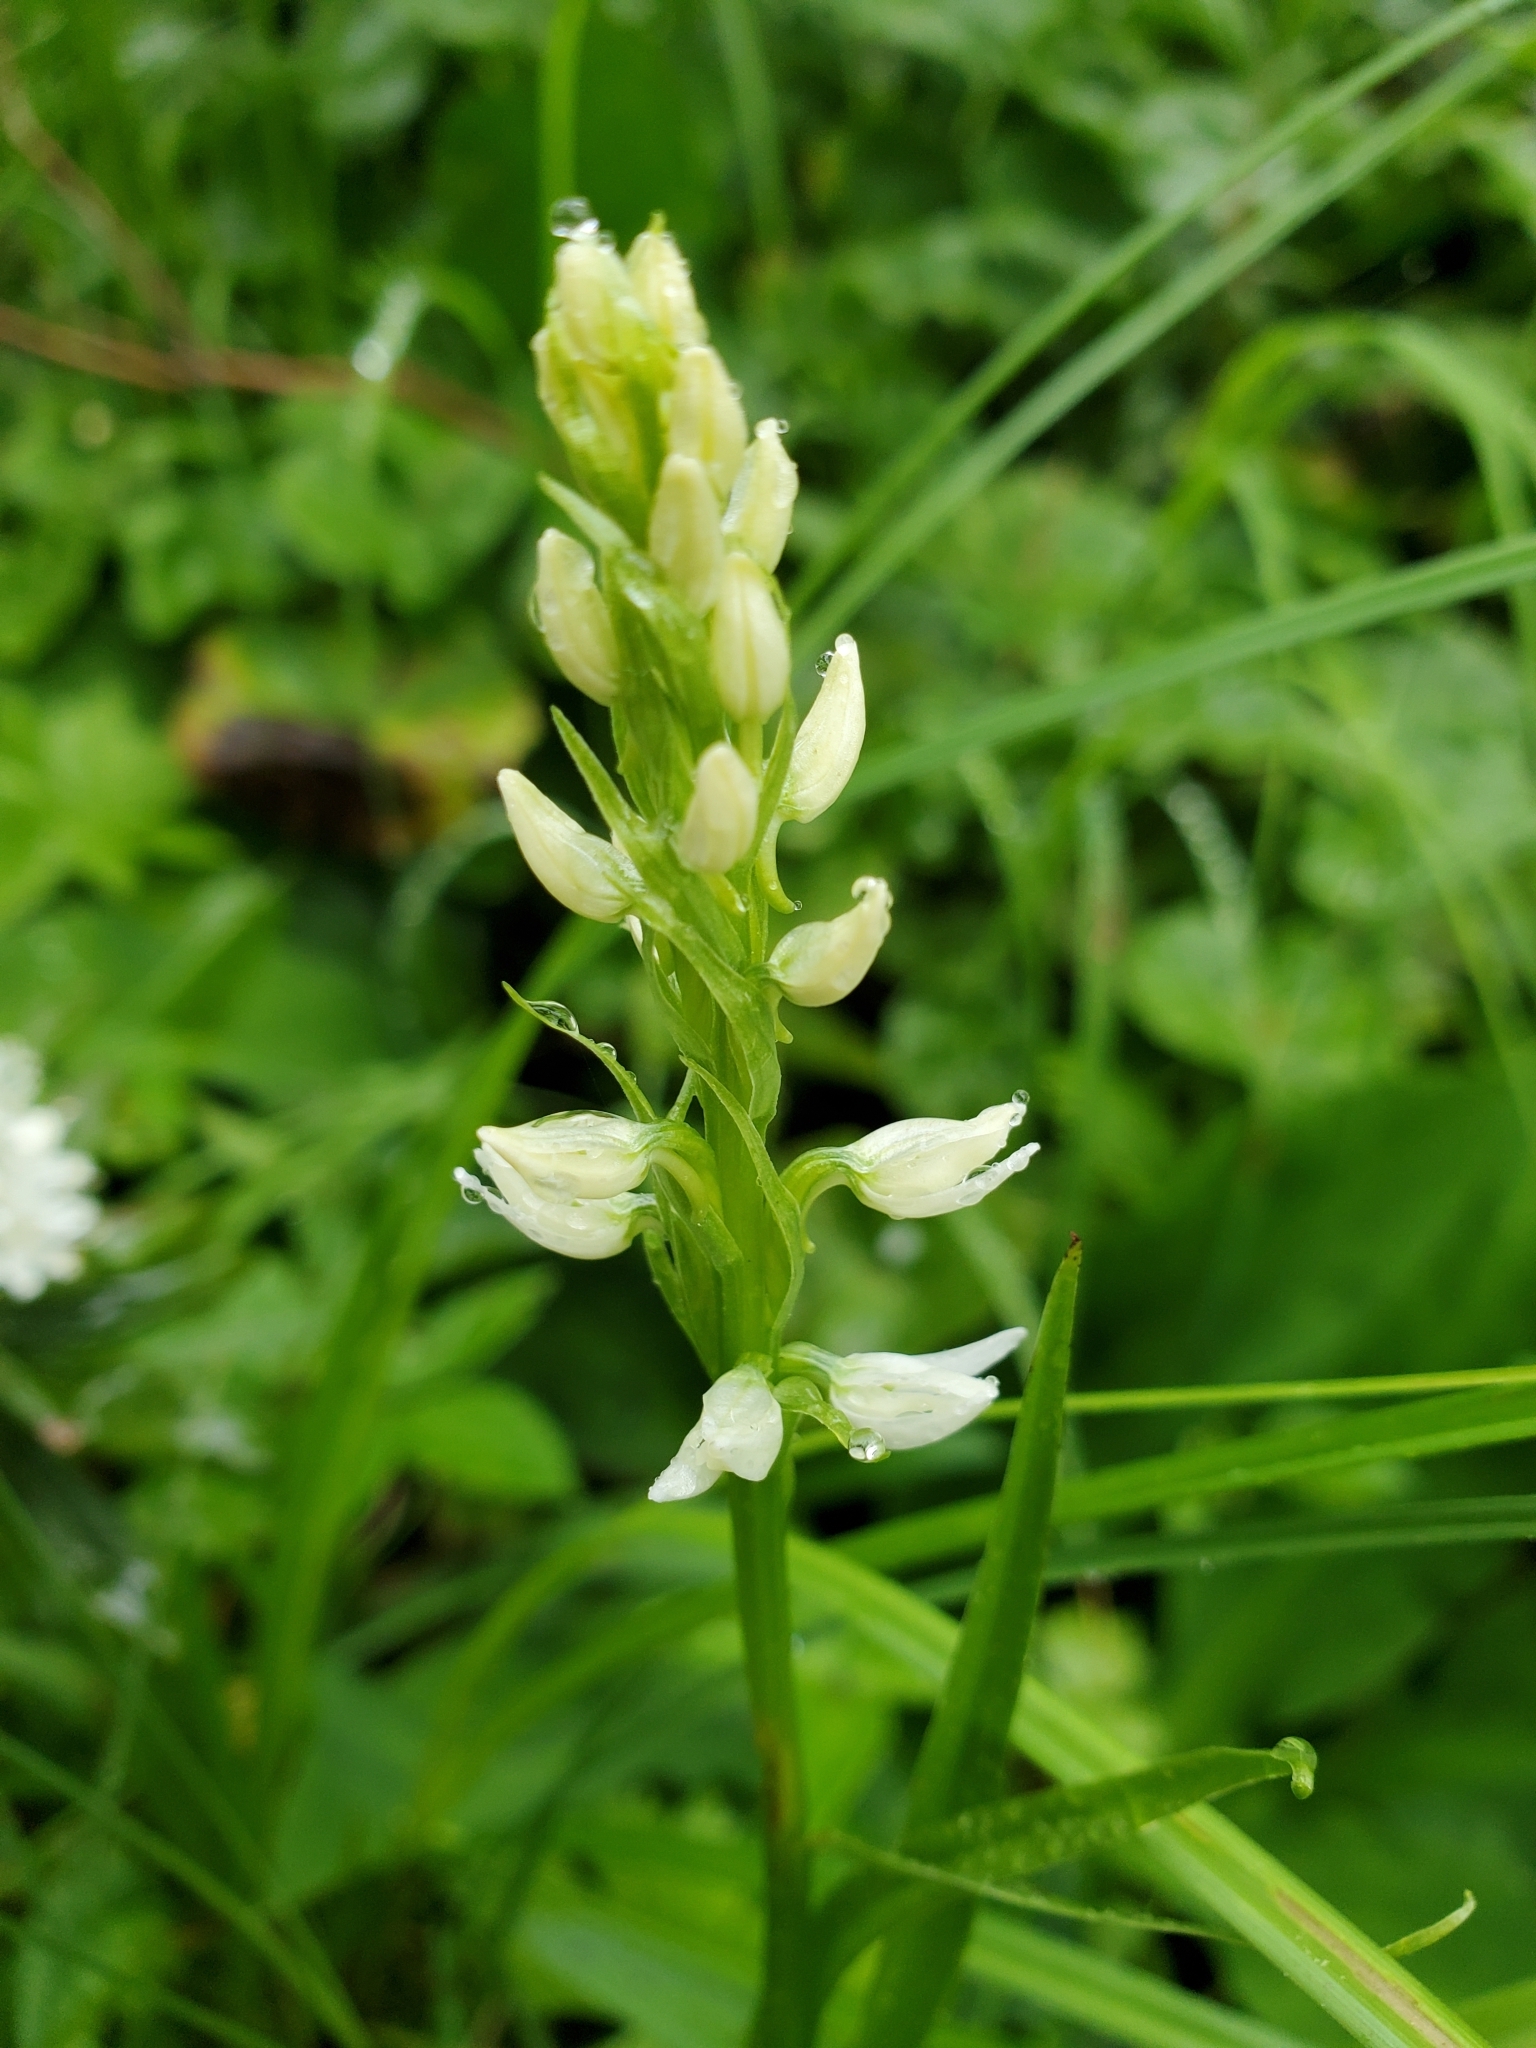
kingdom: Plantae
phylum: Tracheophyta
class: Liliopsida
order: Asparagales
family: Orchidaceae
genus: Platanthera
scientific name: Platanthera dilatata
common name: Bog candles
